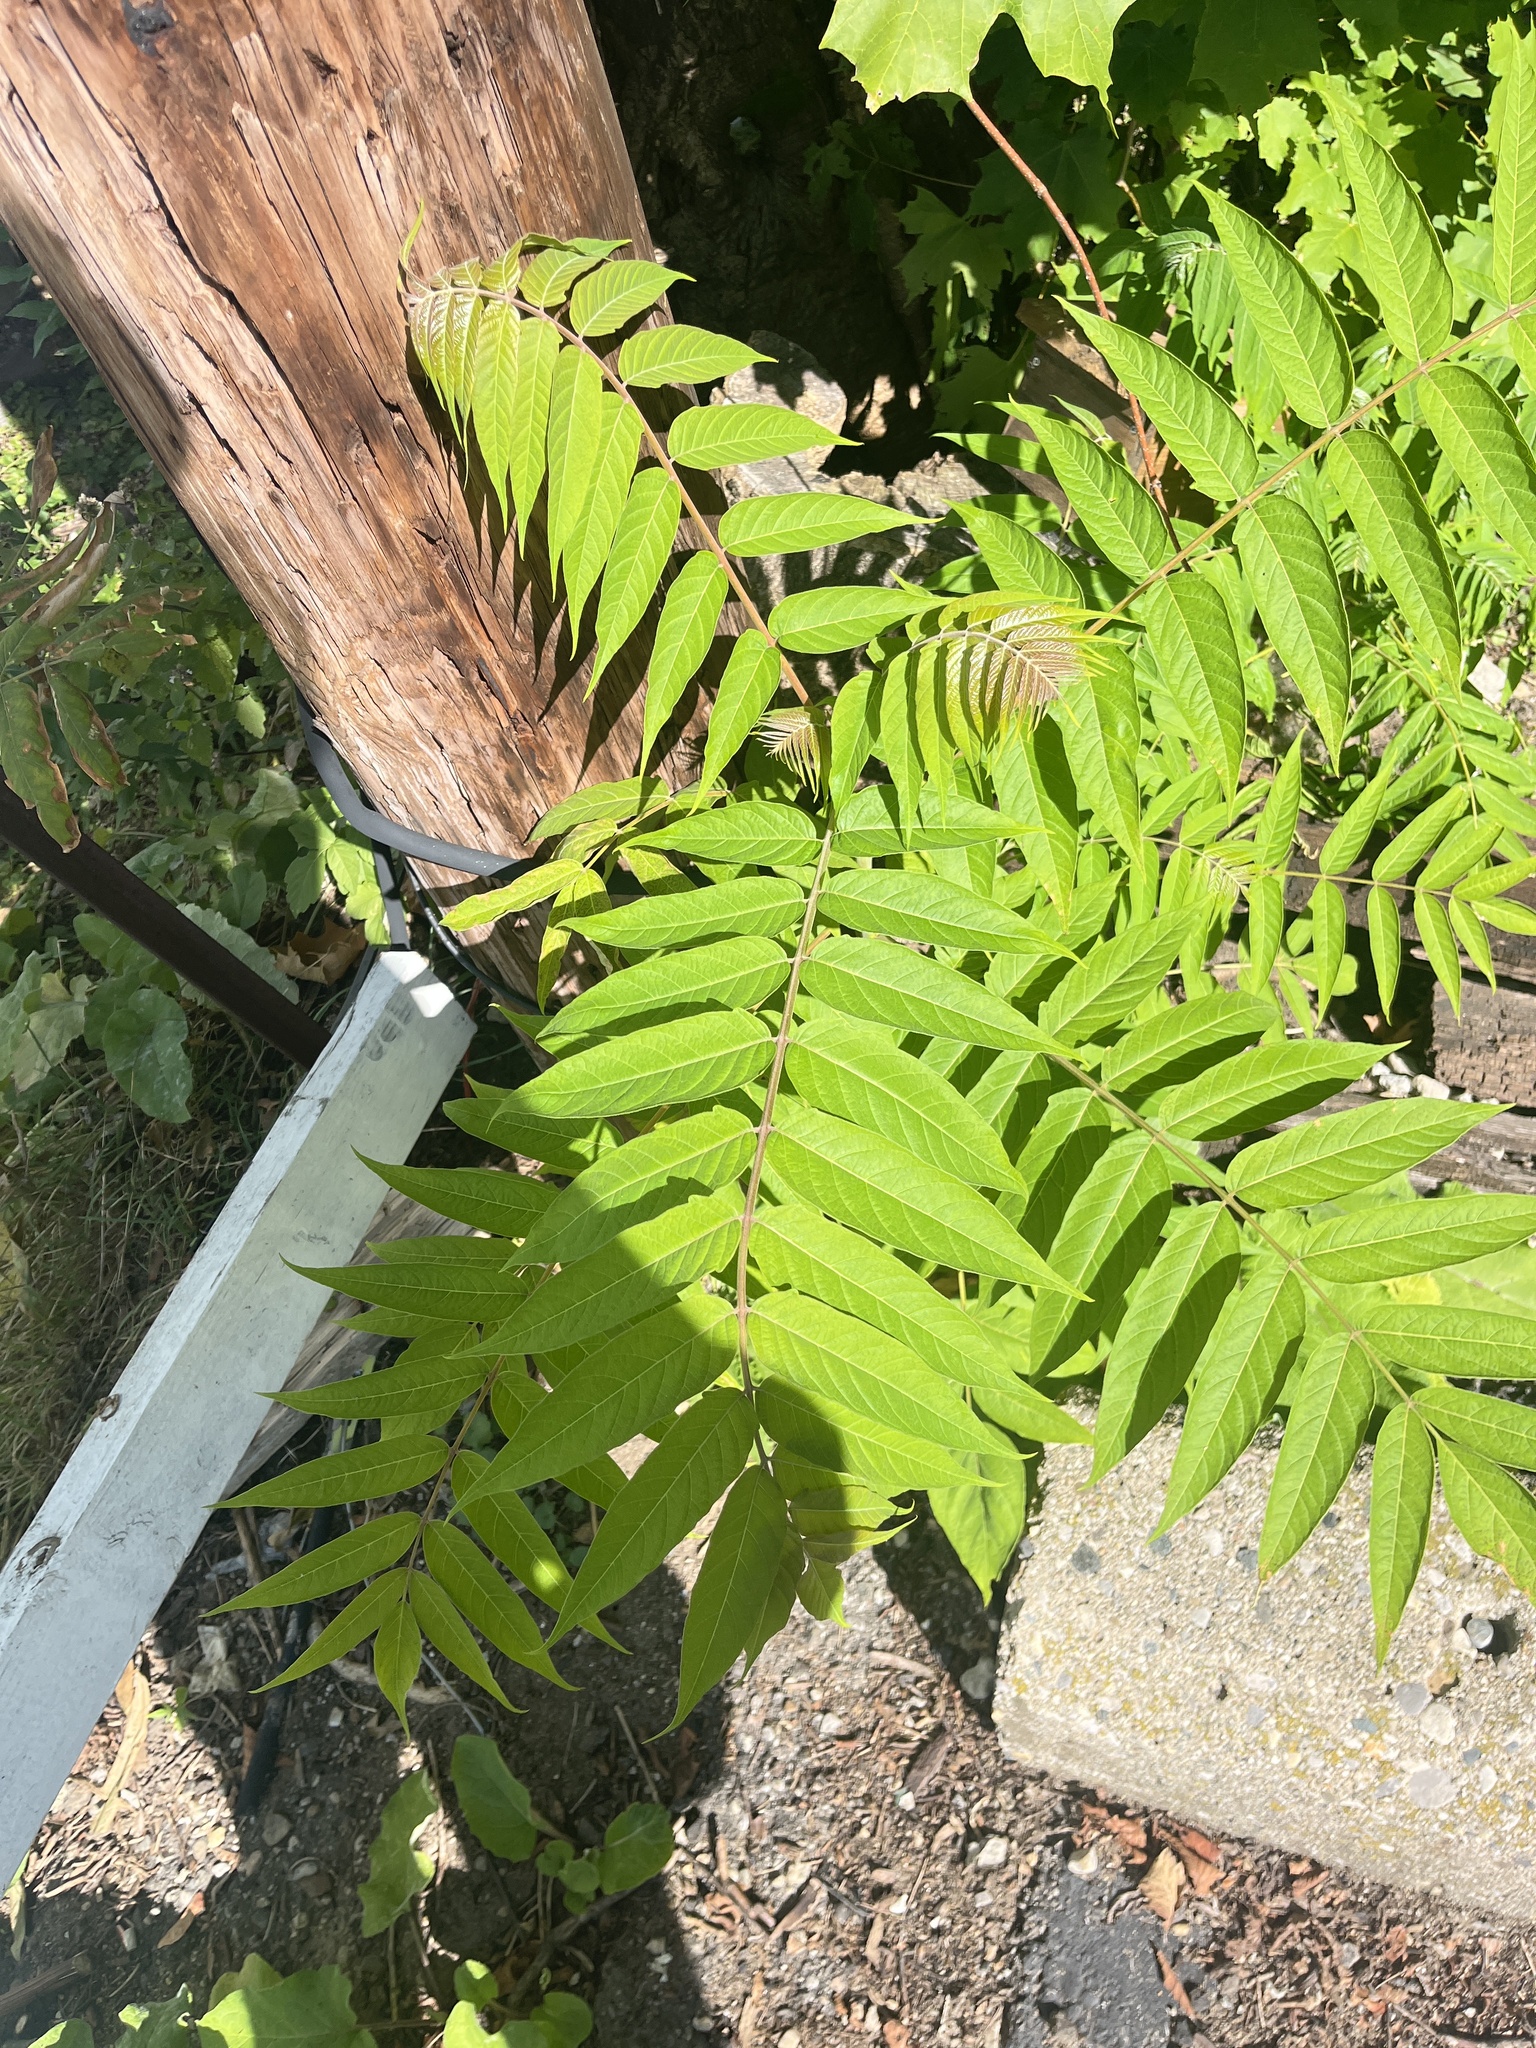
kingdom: Plantae
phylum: Tracheophyta
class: Magnoliopsida
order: Sapindales
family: Simaroubaceae
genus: Ailanthus
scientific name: Ailanthus altissima
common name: Tree-of-heaven
